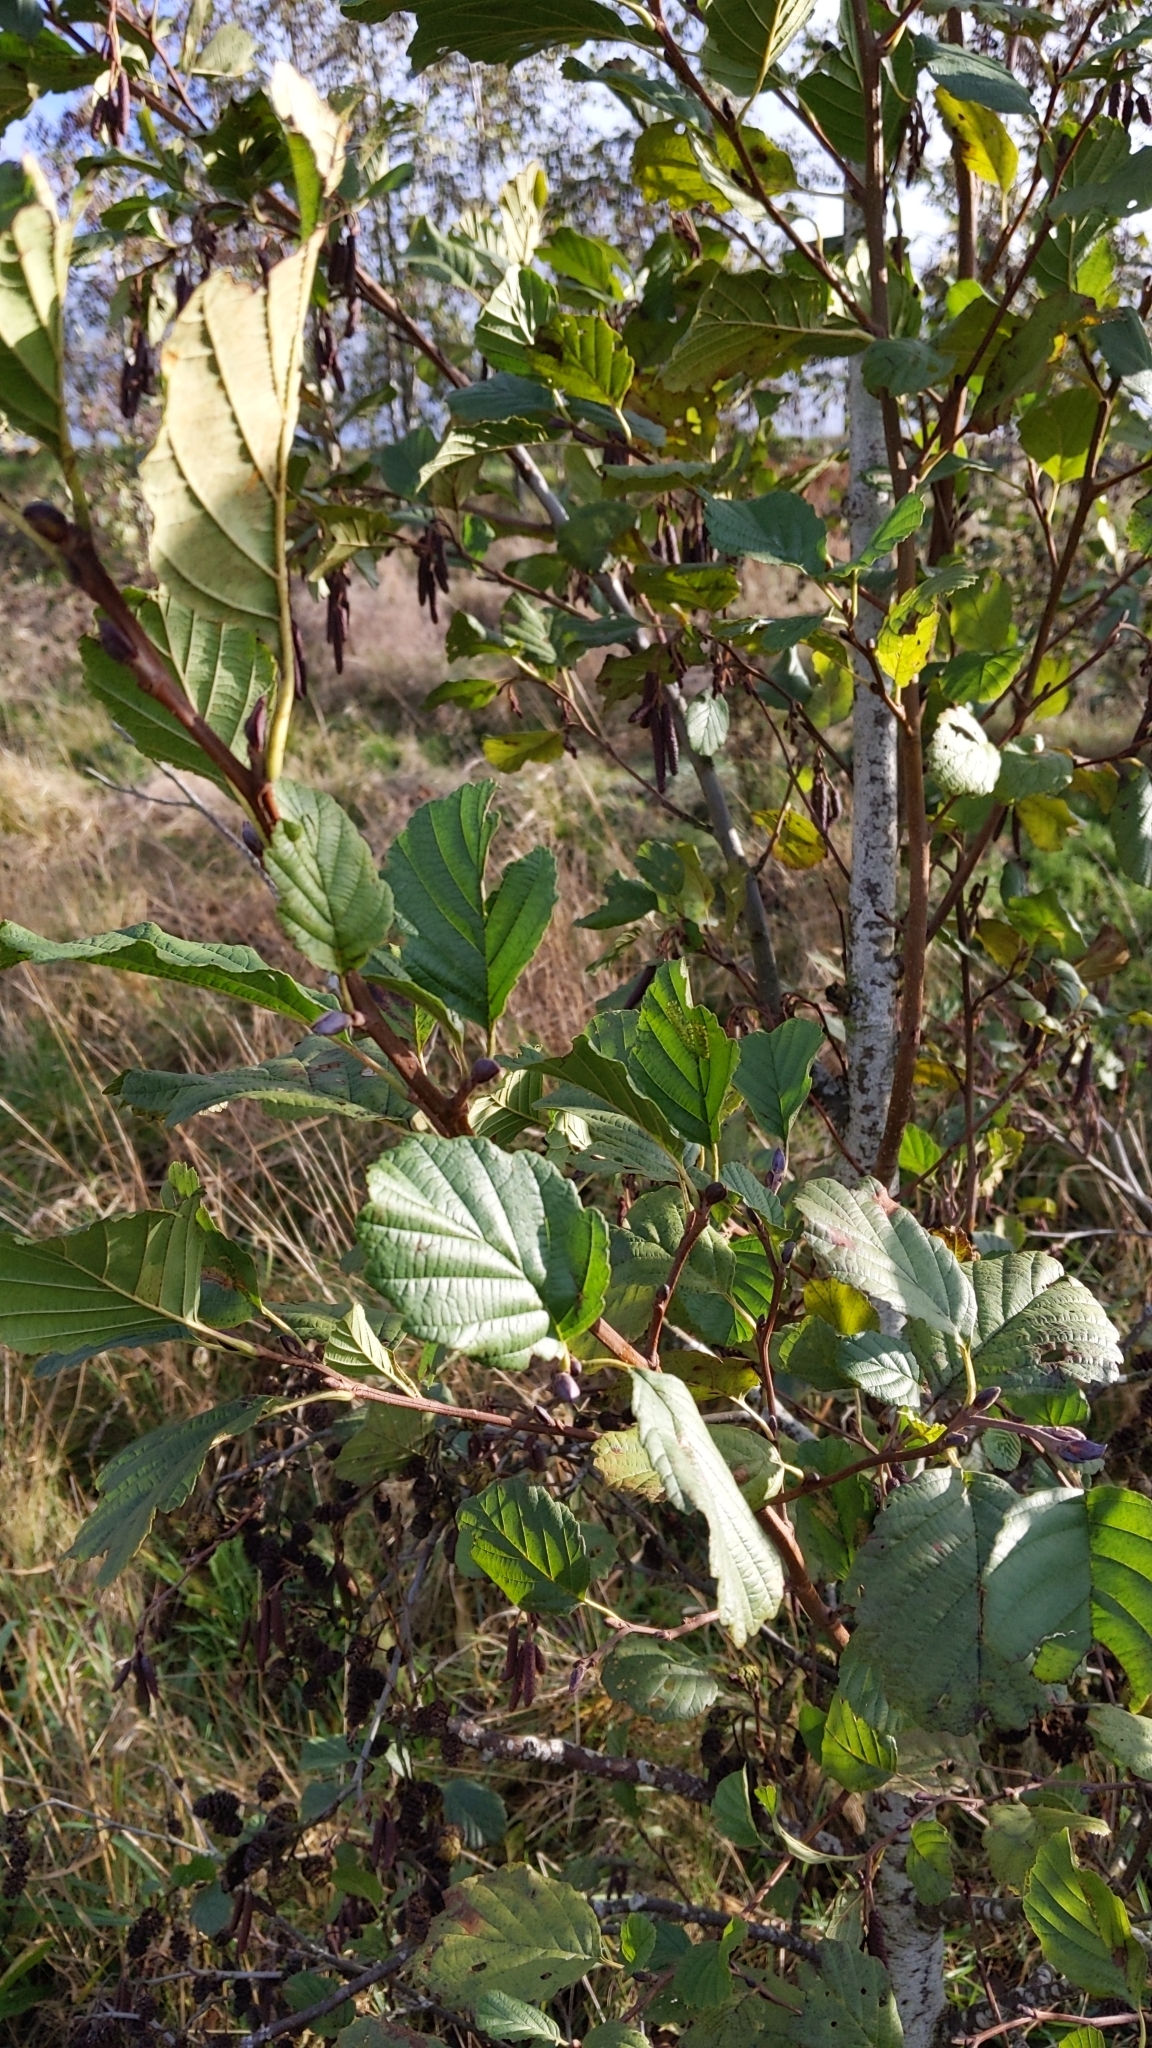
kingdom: Plantae
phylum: Tracheophyta
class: Magnoliopsida
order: Fagales
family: Betulaceae
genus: Alnus
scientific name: Alnus glutinosa
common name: Black alder
